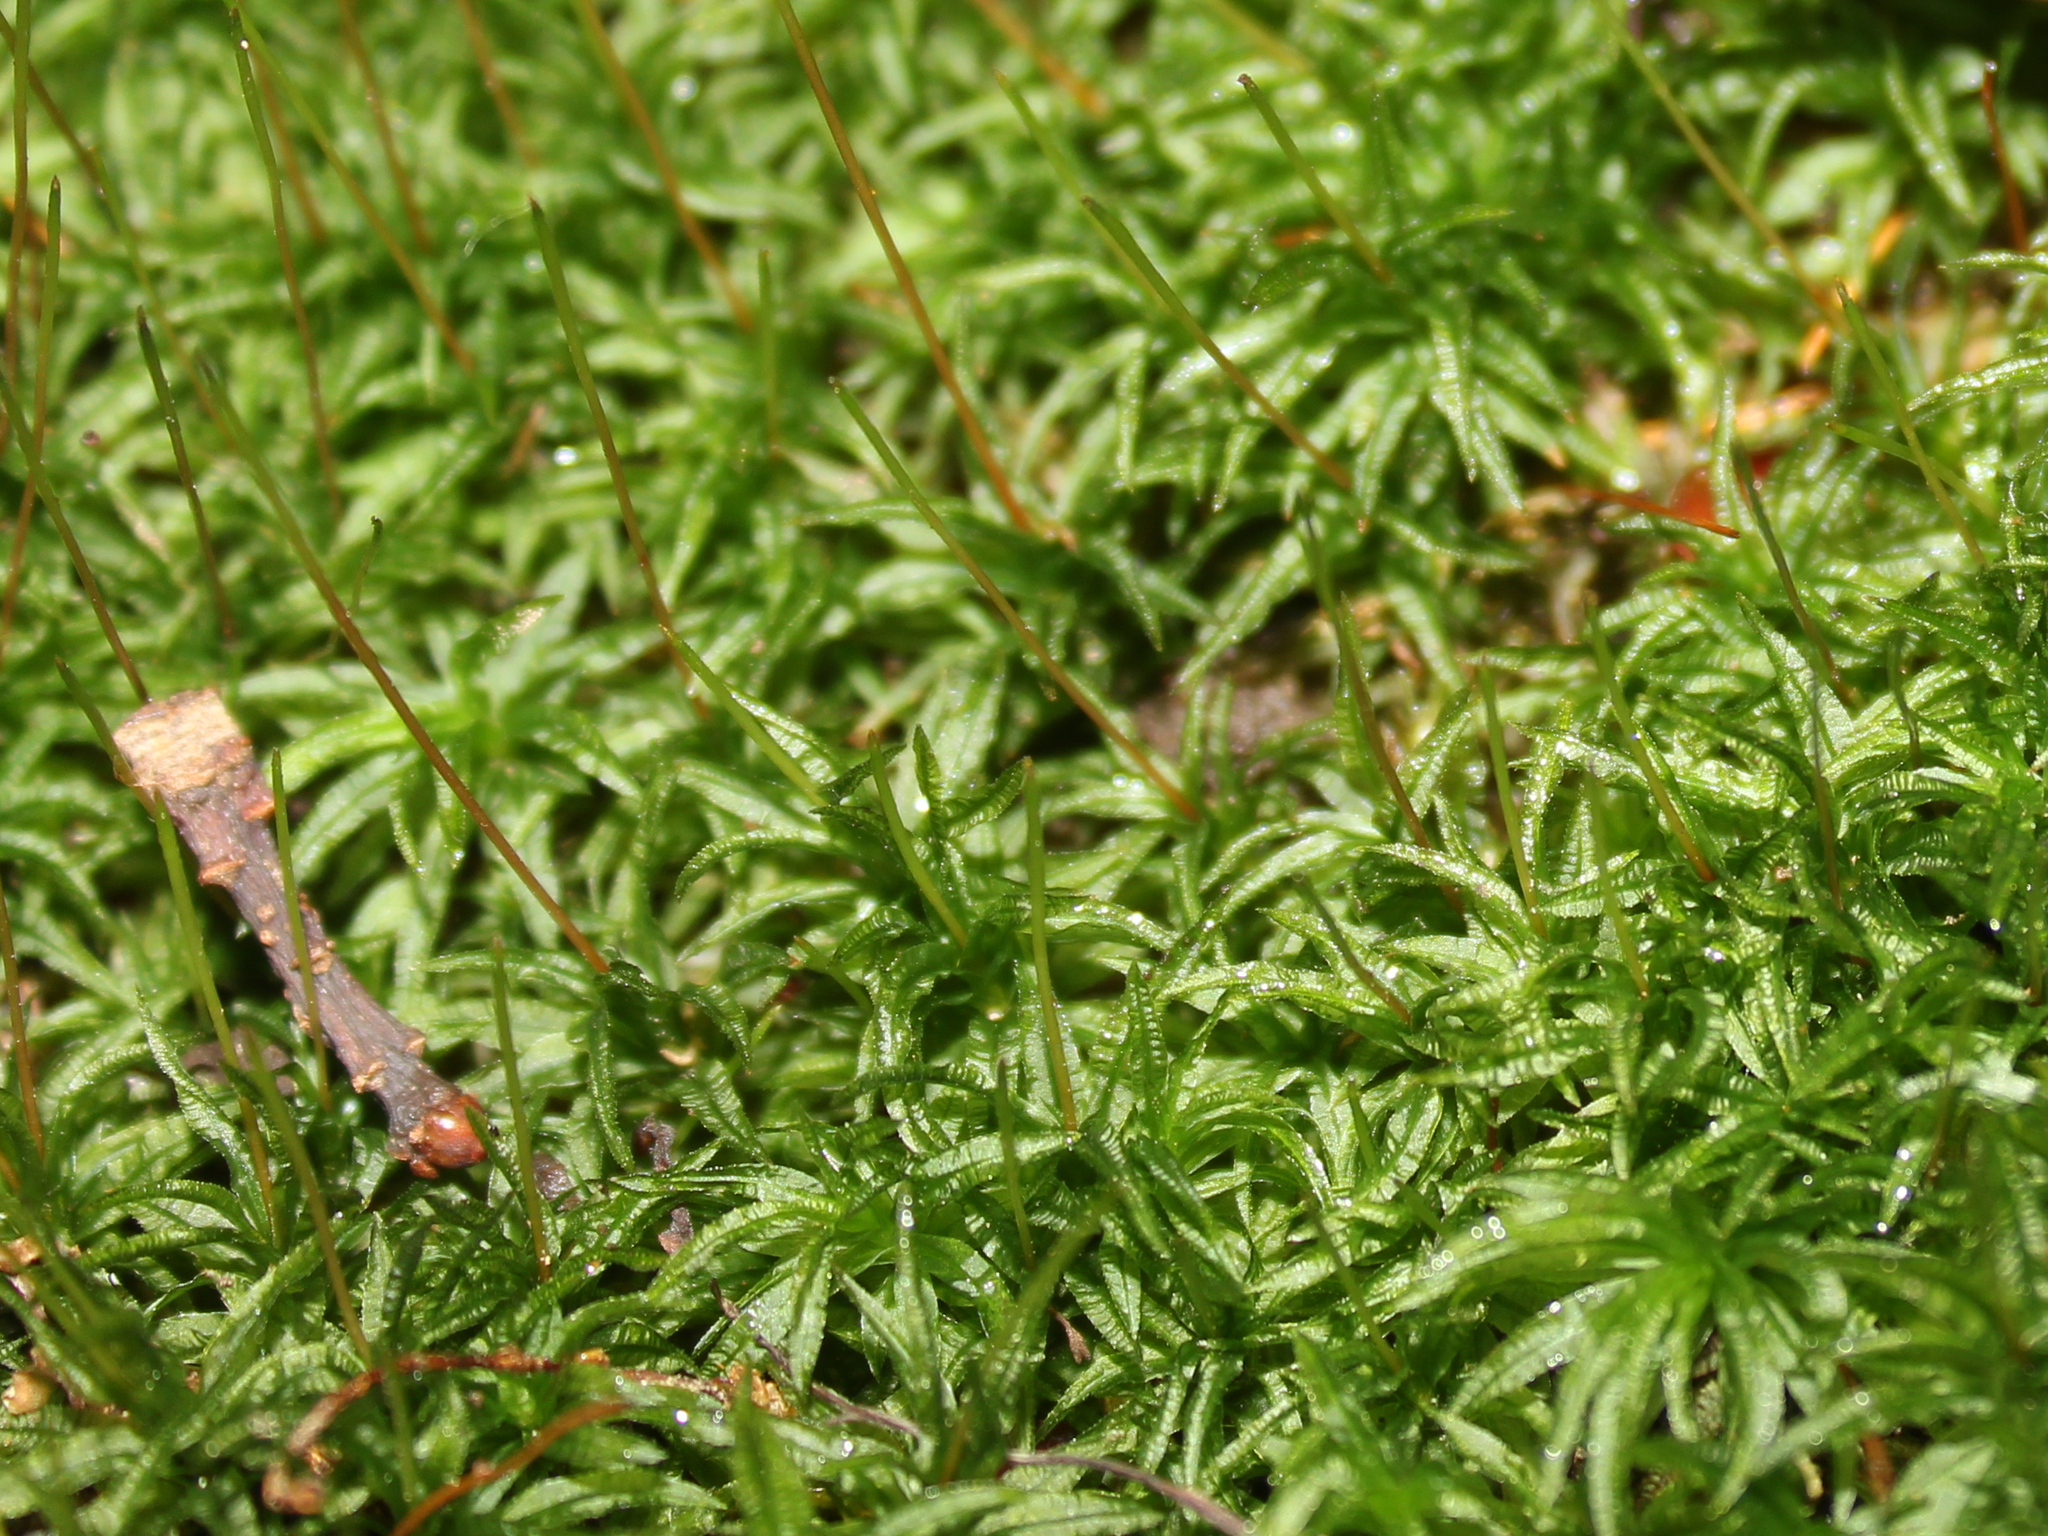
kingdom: Plantae
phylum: Bryophyta
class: Polytrichopsida
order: Polytrichales
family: Polytrichaceae
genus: Atrichum
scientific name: Atrichum undulatum
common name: Common smoothcap
